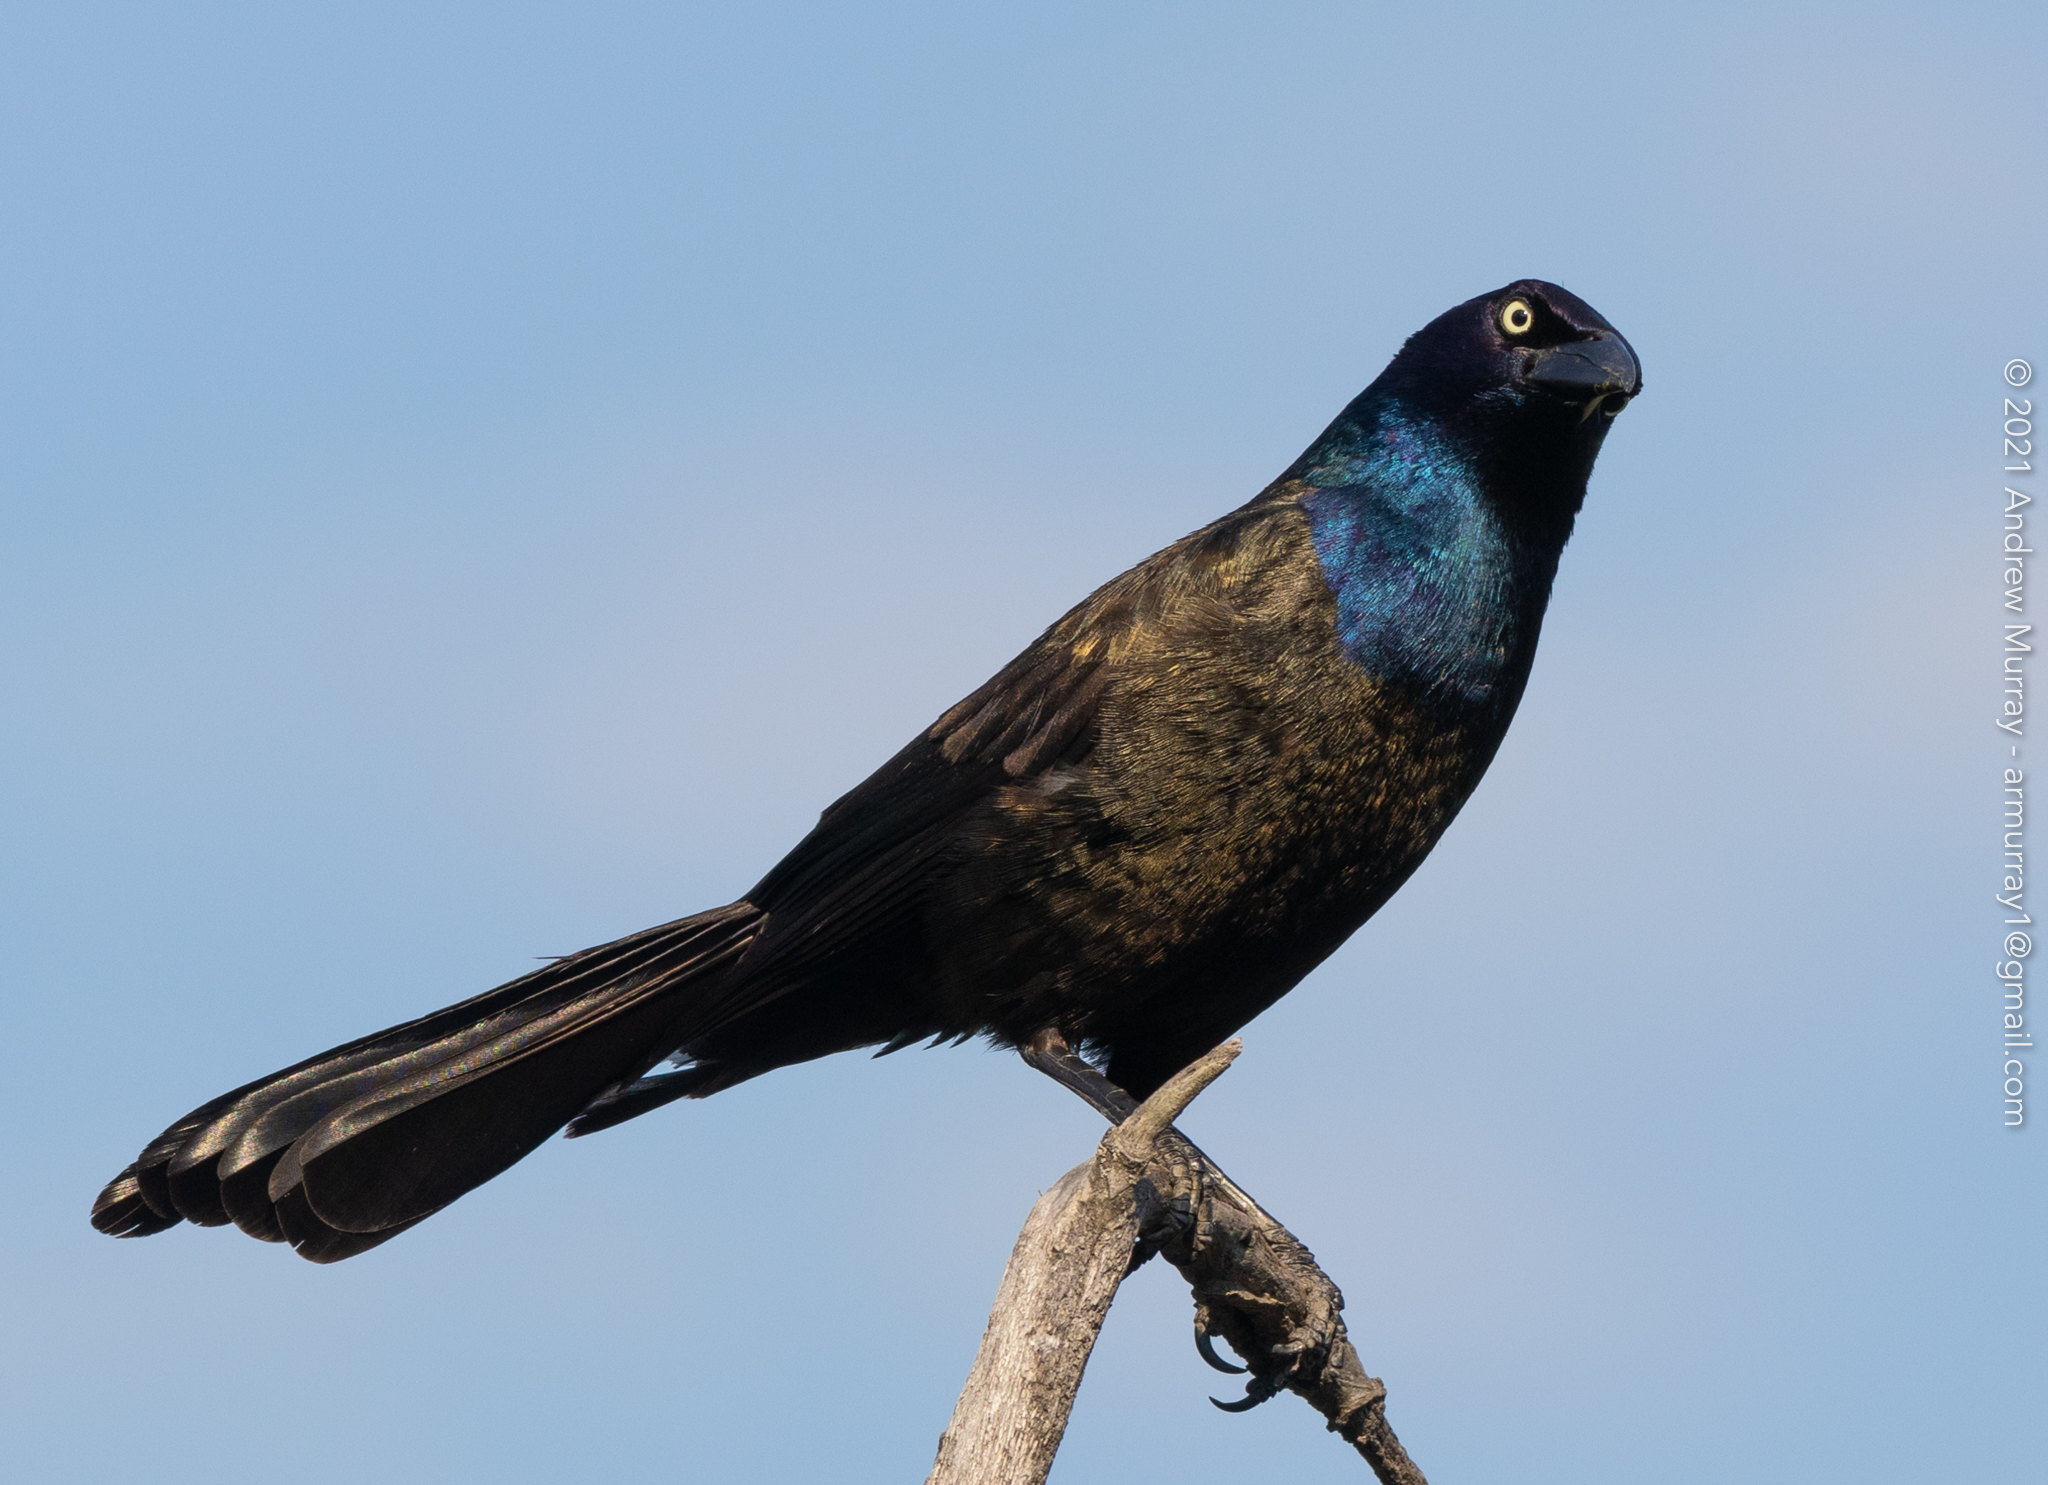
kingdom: Animalia
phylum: Chordata
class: Aves
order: Passeriformes
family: Icteridae
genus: Quiscalus
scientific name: Quiscalus quiscula
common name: Common grackle
